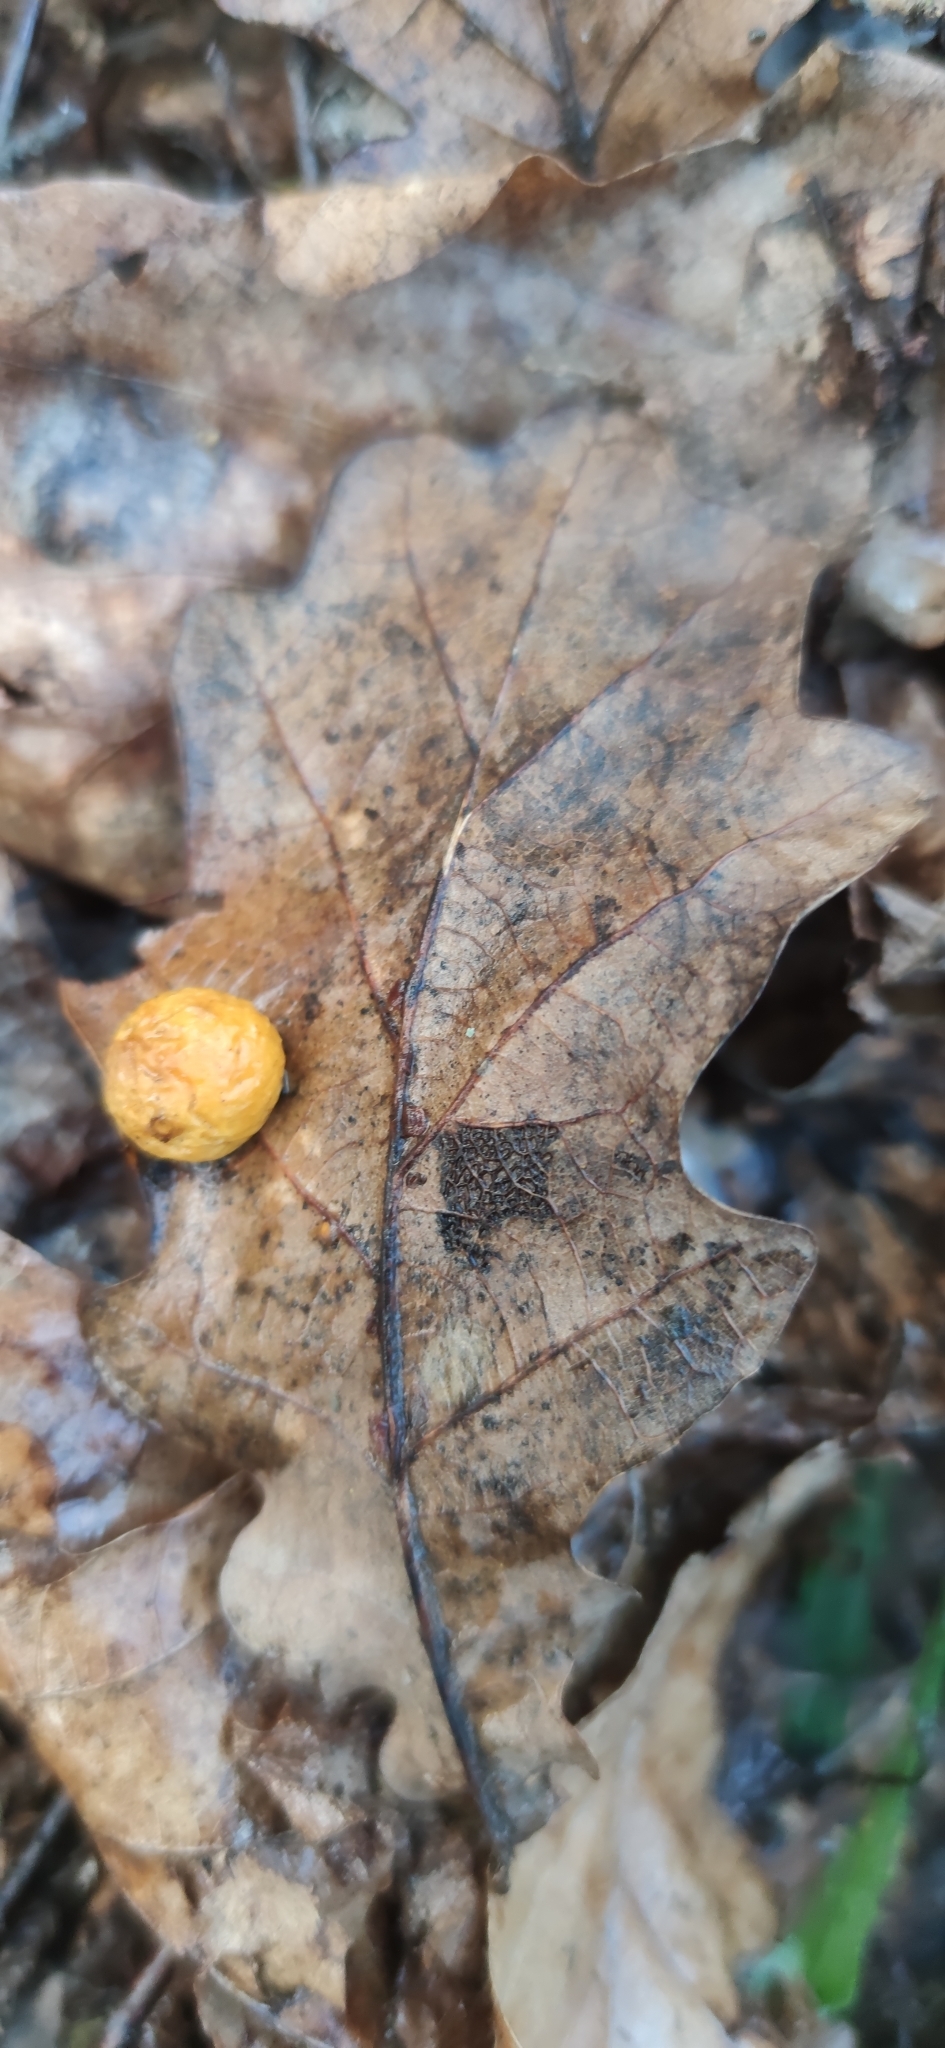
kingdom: Animalia
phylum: Arthropoda
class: Insecta
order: Hymenoptera
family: Cynipidae
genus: Cynips
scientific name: Cynips quercusfolii
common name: Cherry gall
